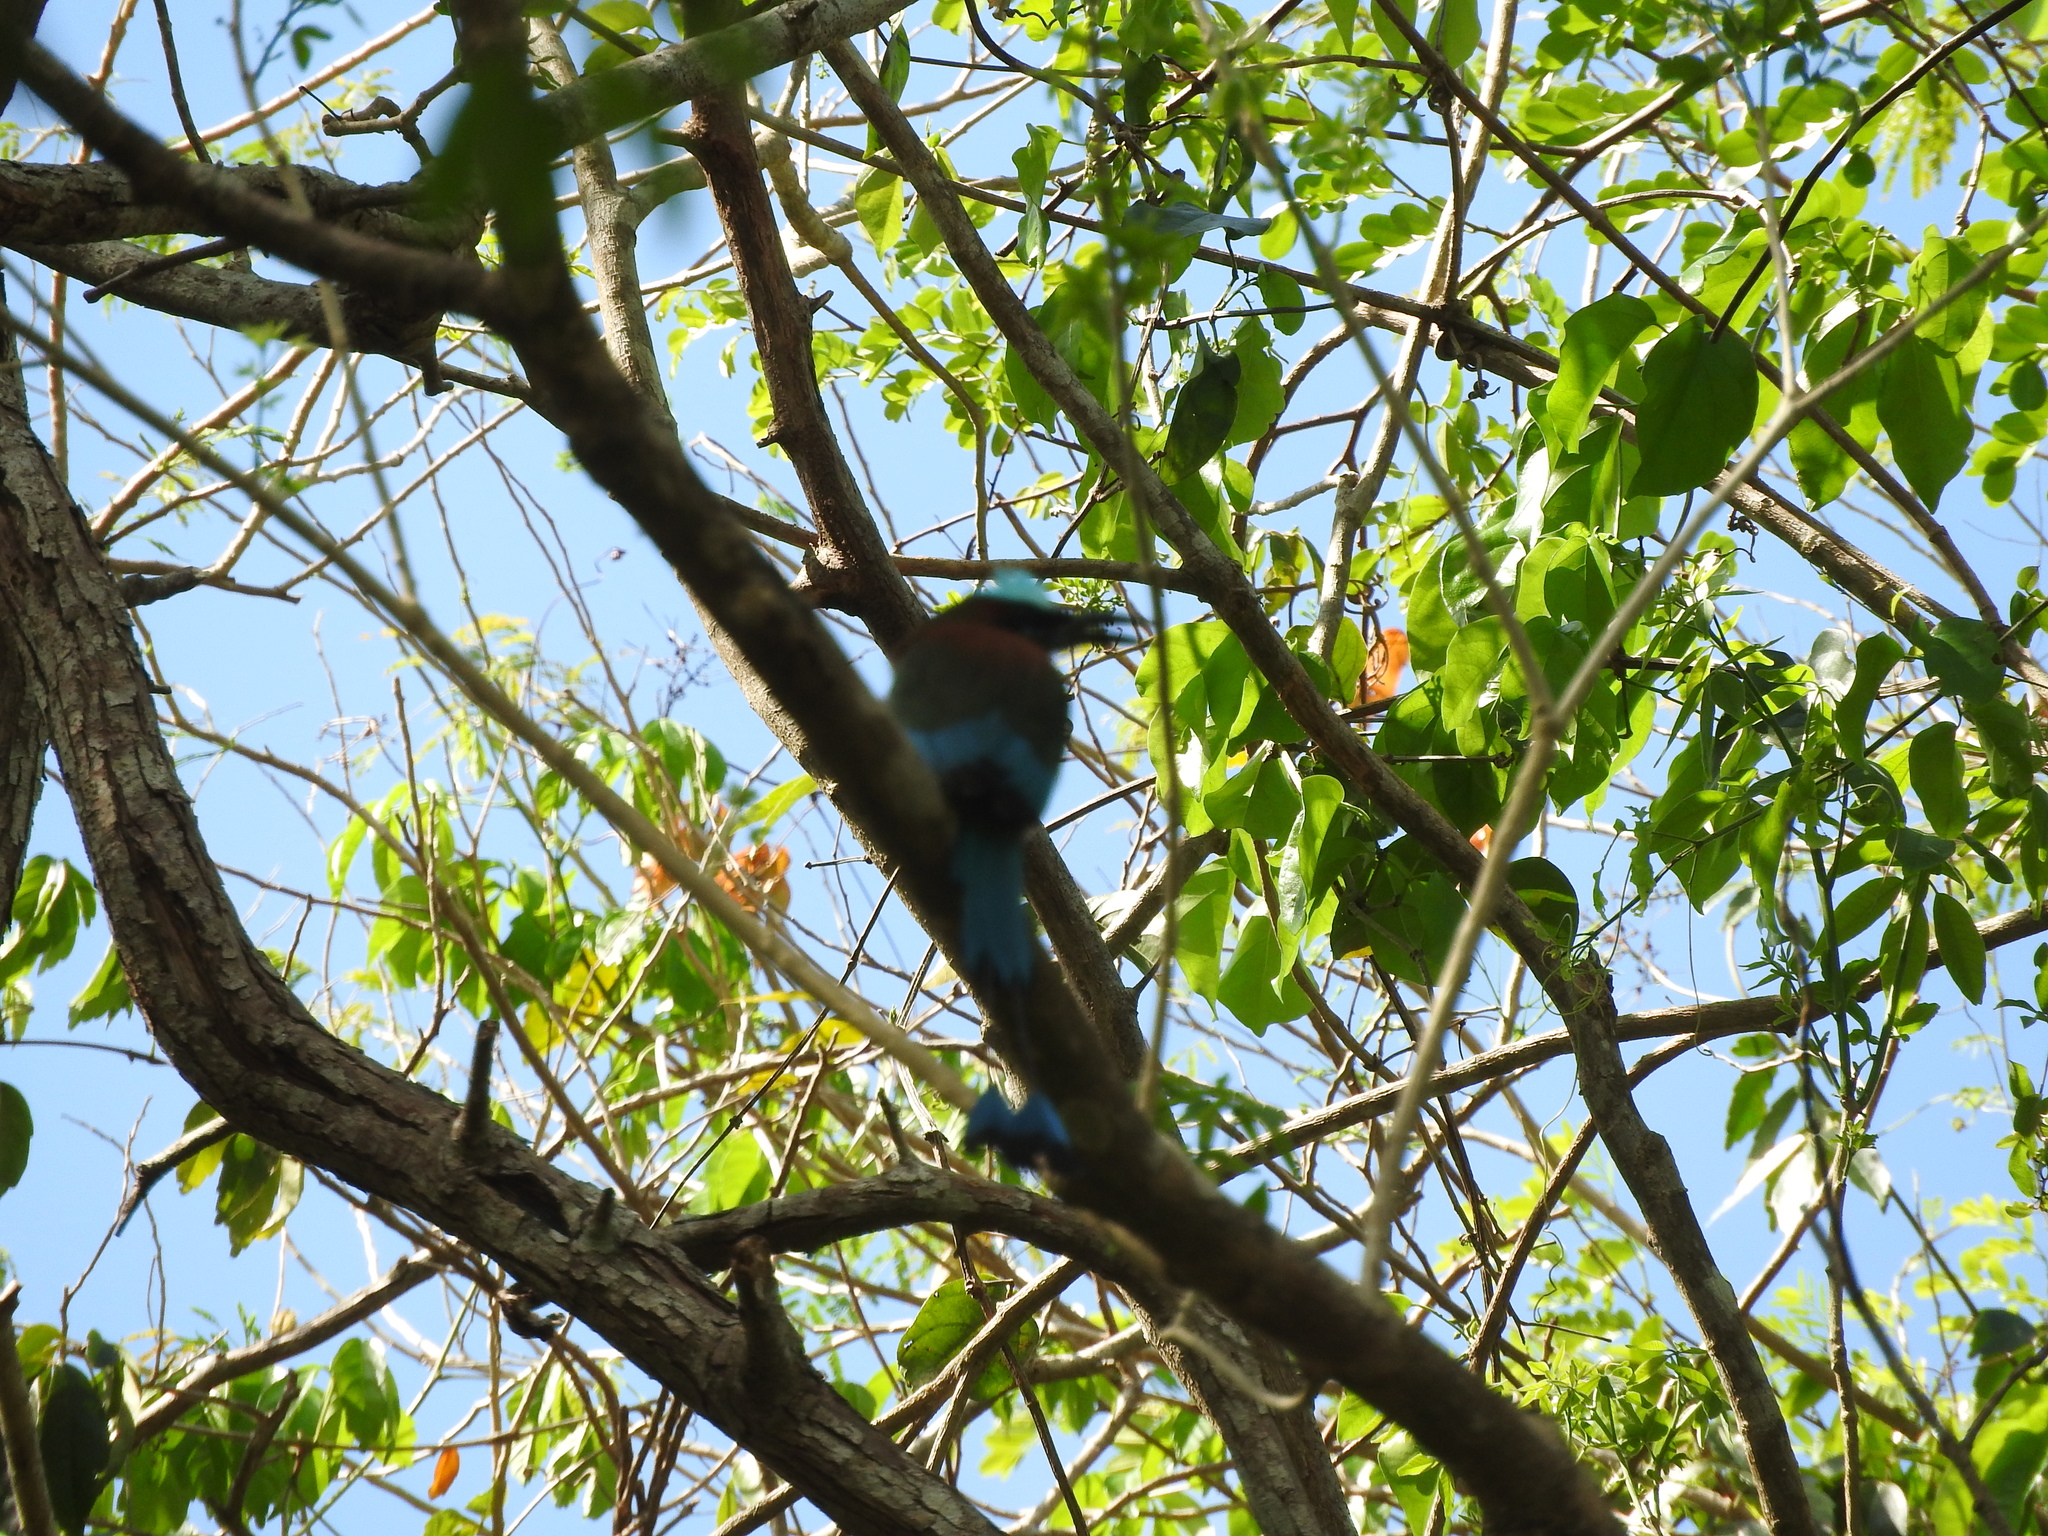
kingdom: Animalia
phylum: Chordata
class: Aves
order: Coraciiformes
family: Momotidae
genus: Eumomota
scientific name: Eumomota superciliosa
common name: Turquoise-browed motmot
